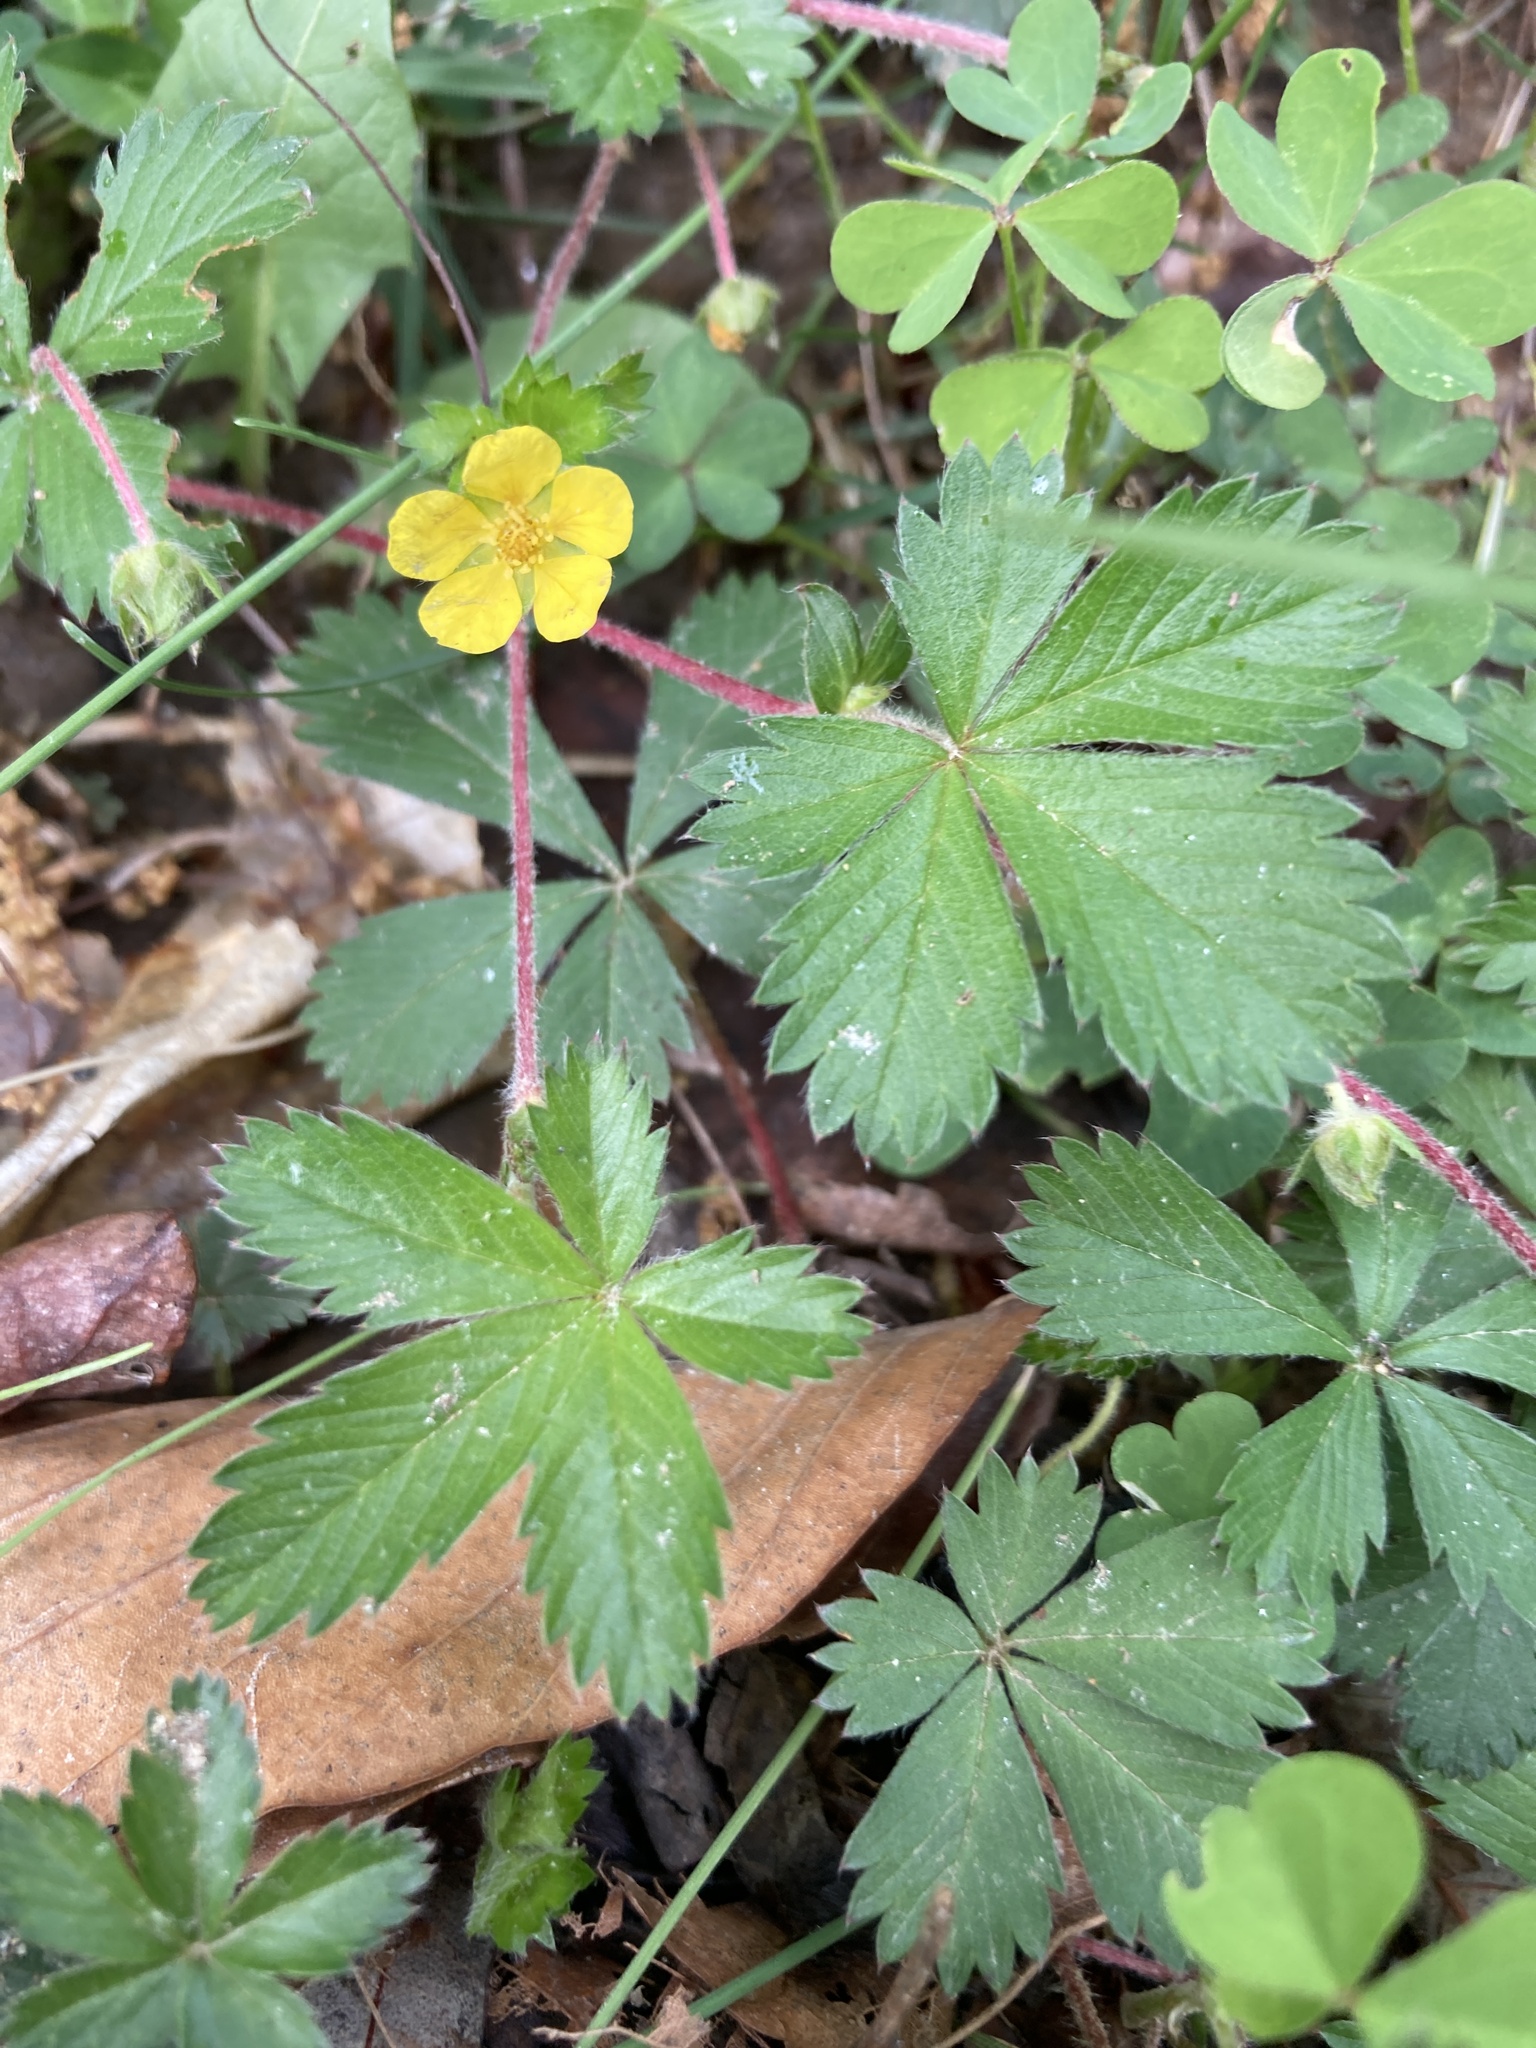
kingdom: Plantae
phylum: Tracheophyta
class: Magnoliopsida
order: Rosales
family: Rosaceae
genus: Potentilla
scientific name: Potentilla canadensis
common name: Canada cinquefoil
